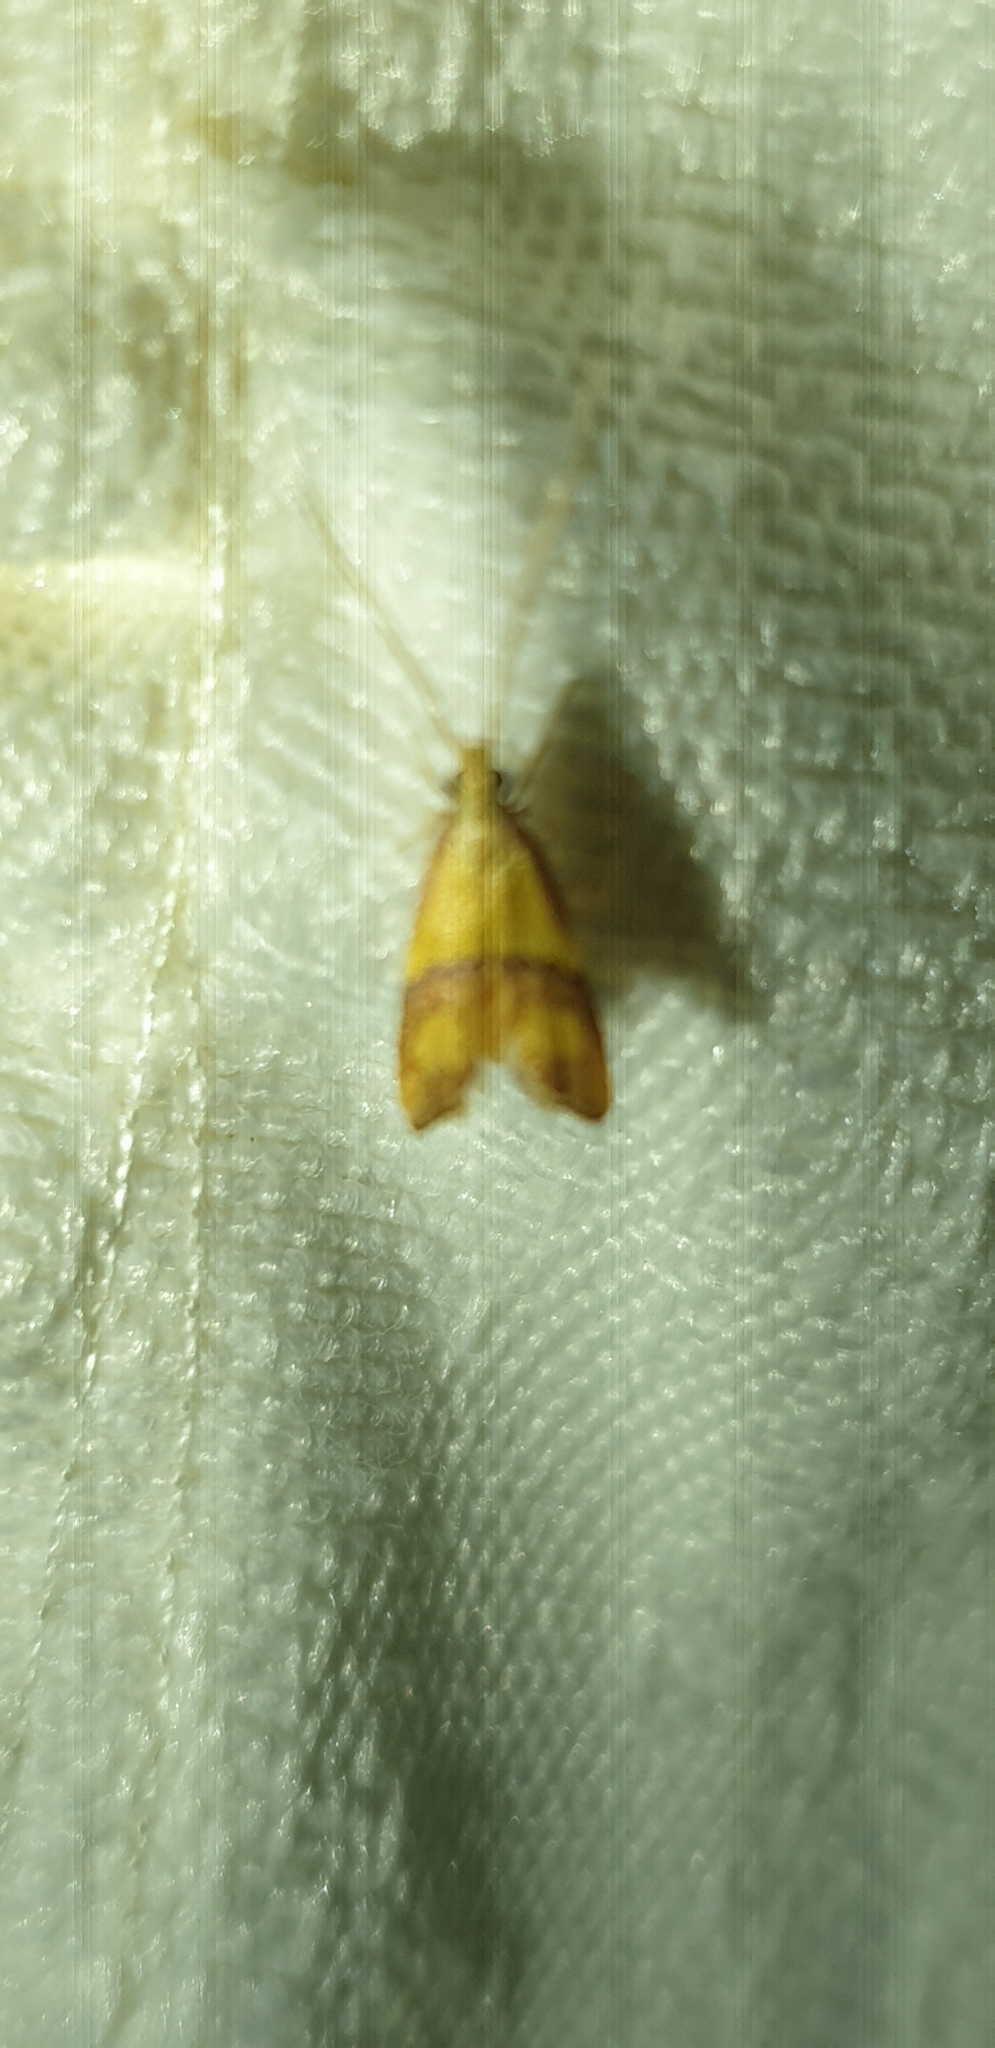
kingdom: Animalia
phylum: Arthropoda
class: Insecta
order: Lepidoptera
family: Lecithoceridae
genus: Crocanthes
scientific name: Crocanthes prasinopis
